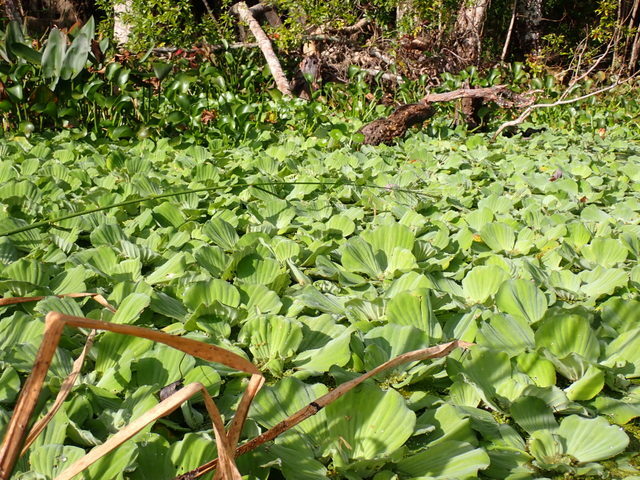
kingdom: Plantae
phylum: Tracheophyta
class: Liliopsida
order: Alismatales
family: Araceae
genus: Pistia
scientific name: Pistia stratiotes
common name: Water lettuce
